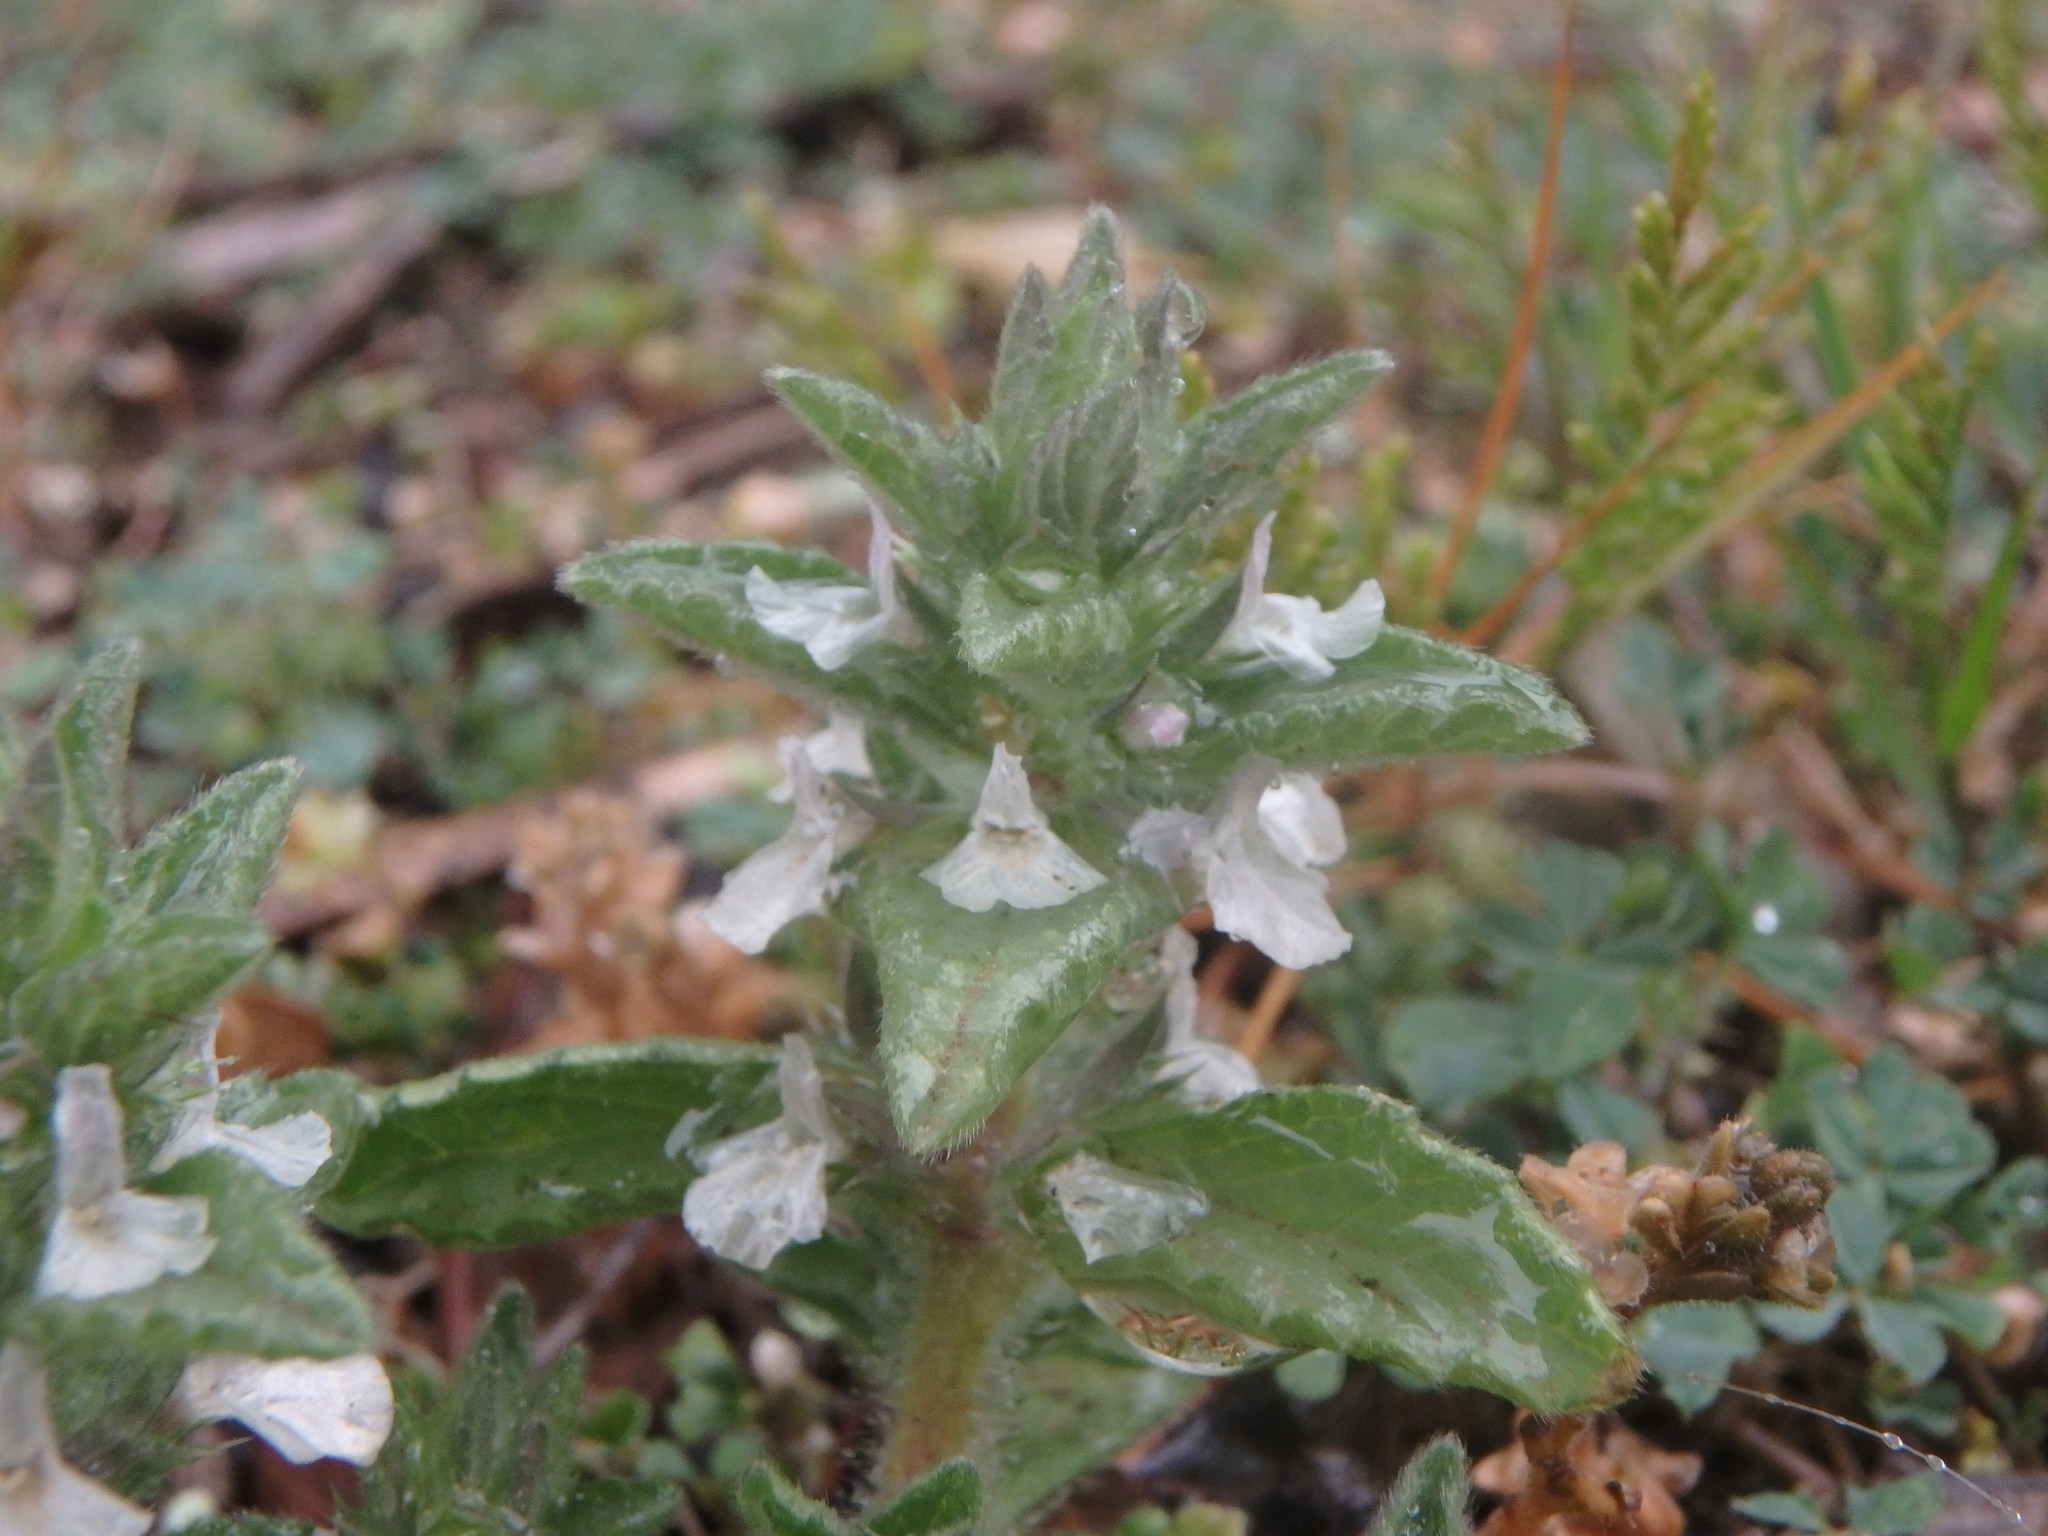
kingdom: Plantae
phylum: Tracheophyta
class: Magnoliopsida
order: Lamiales
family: Lamiaceae
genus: Sideritis
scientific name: Sideritis romana
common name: Simplebeak ironwort
